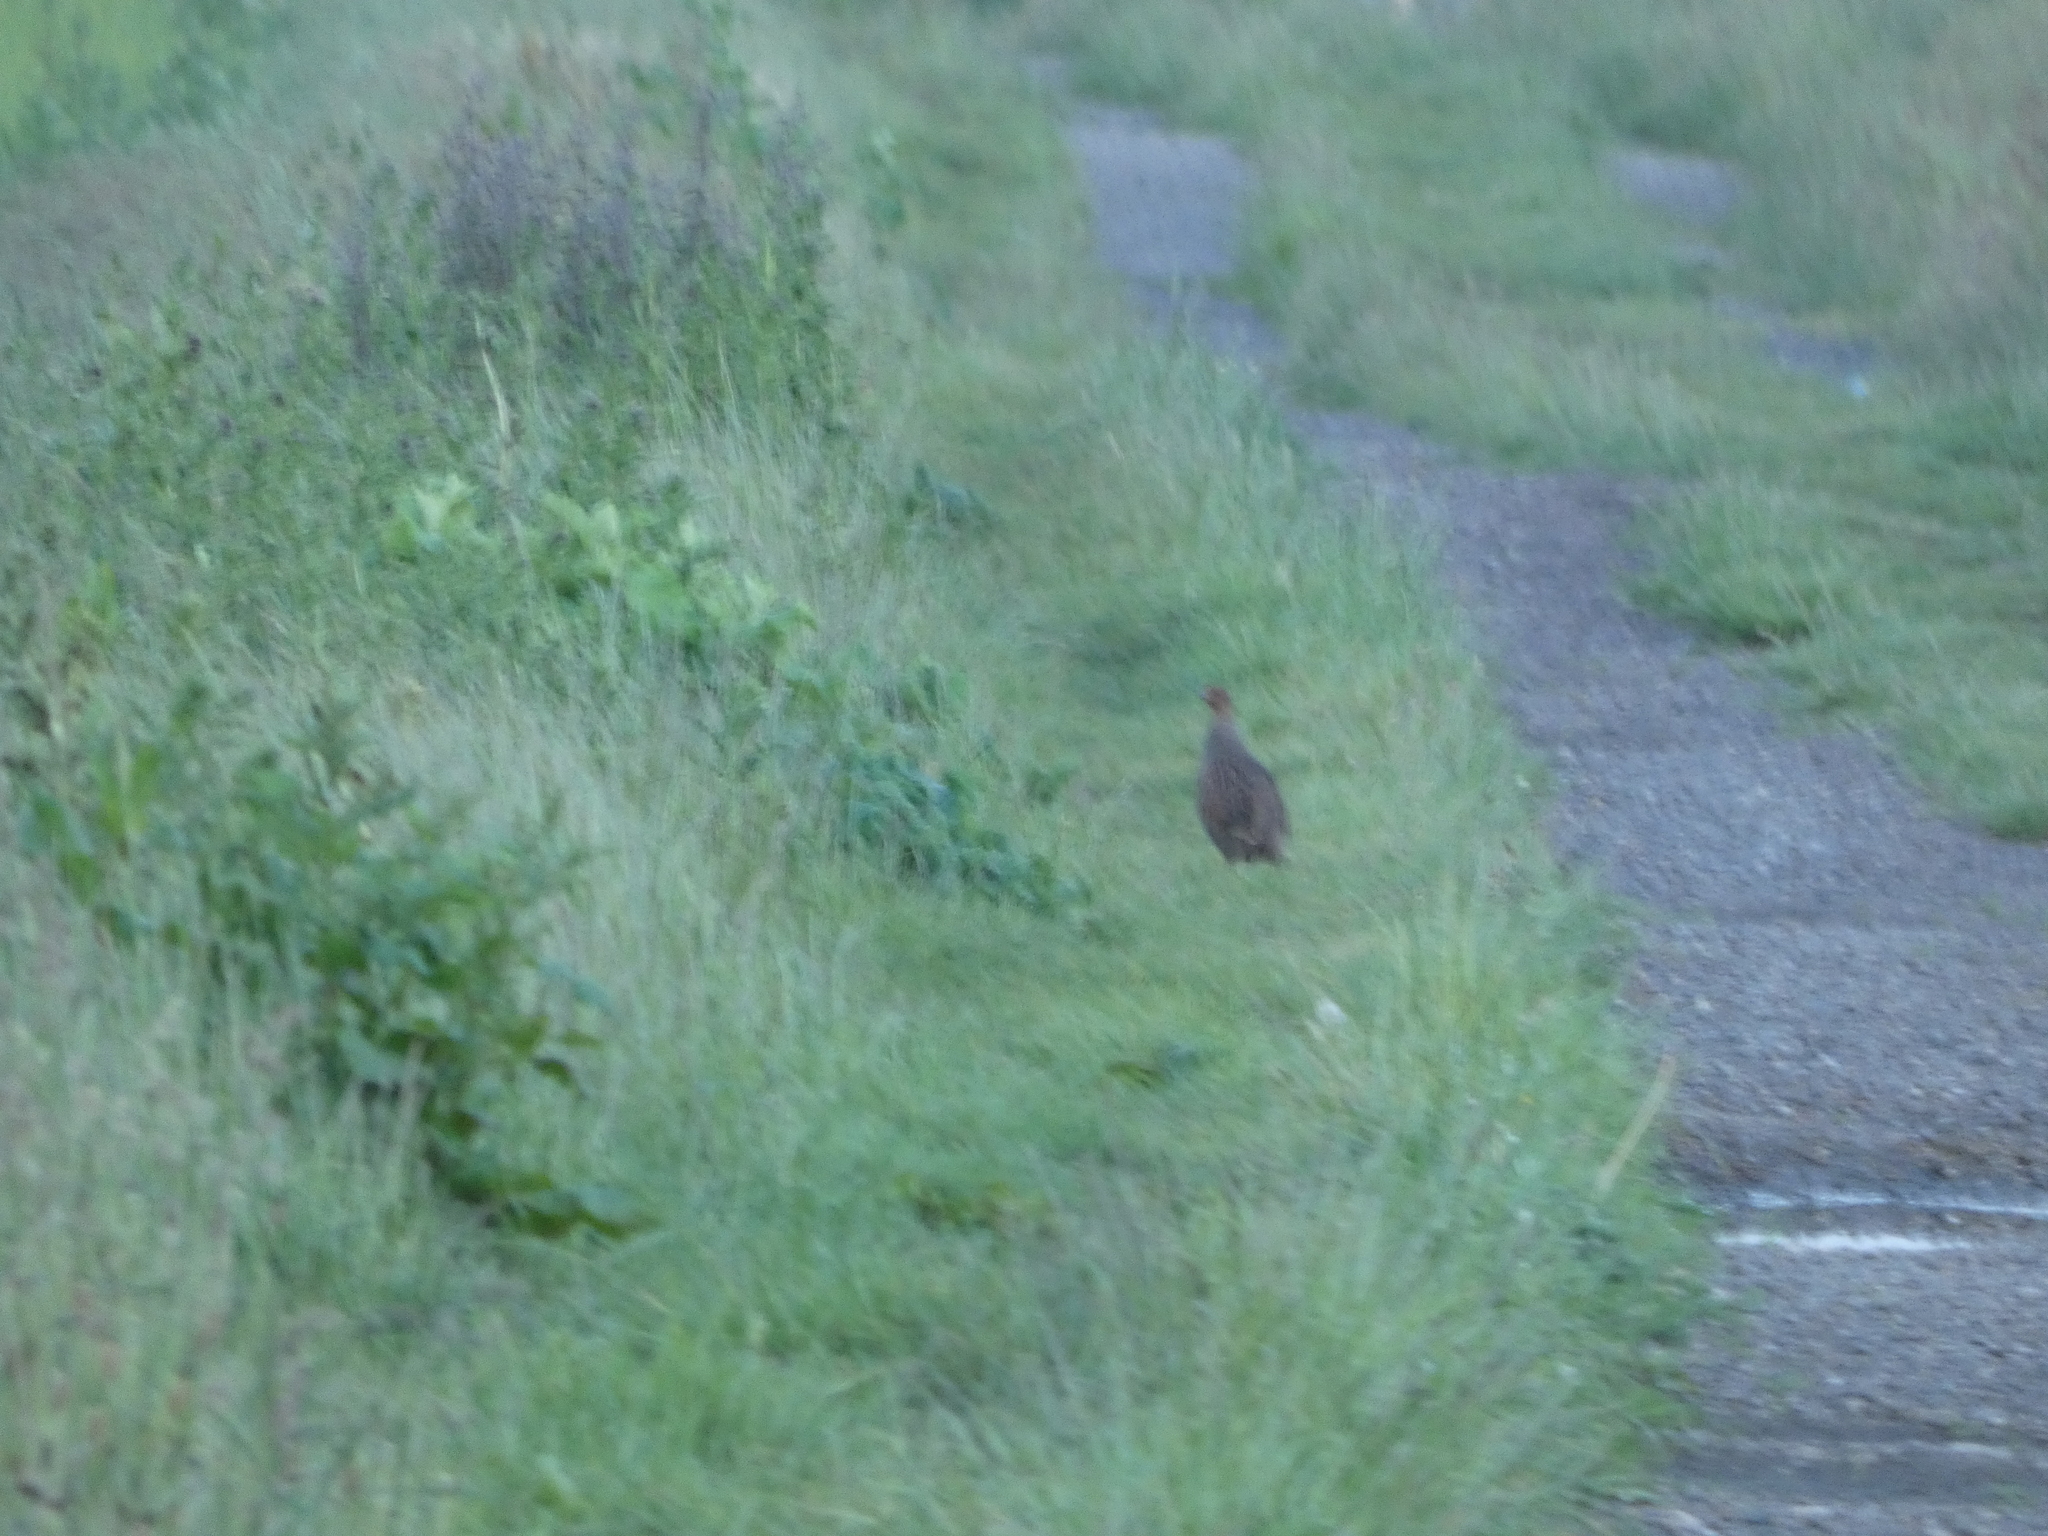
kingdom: Animalia
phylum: Chordata
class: Aves
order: Galliformes
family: Phasianidae
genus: Perdix
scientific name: Perdix perdix
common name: Grey partridge
